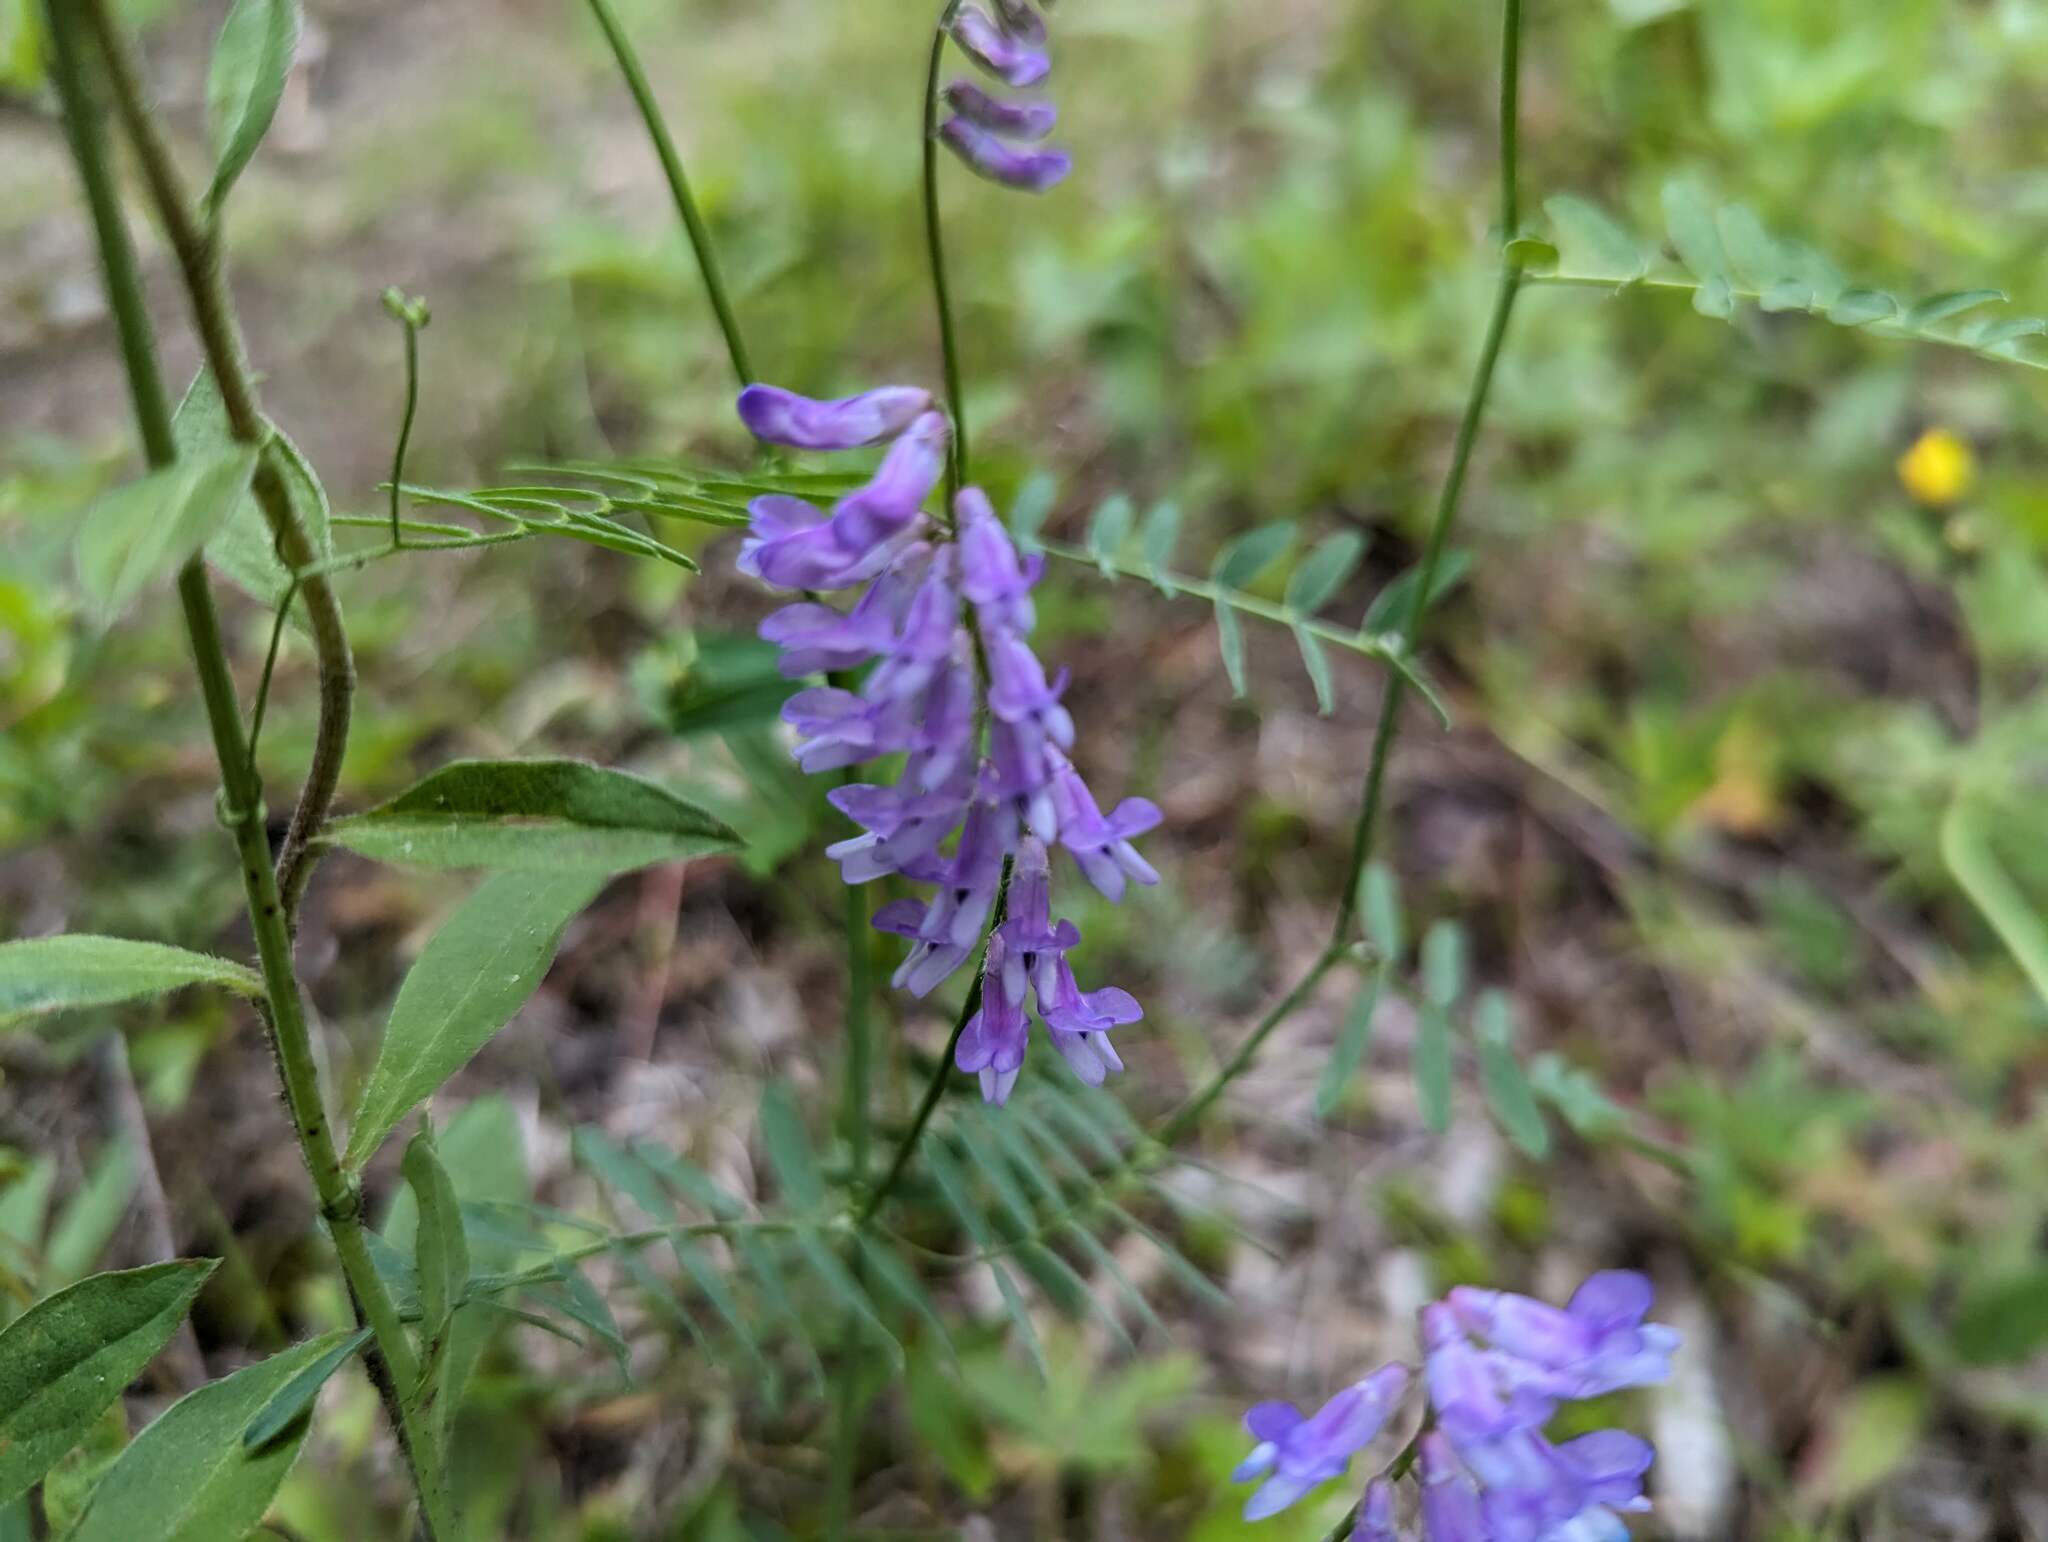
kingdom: Plantae
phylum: Tracheophyta
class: Magnoliopsida
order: Fabales
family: Fabaceae
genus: Vicia
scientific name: Vicia cracca
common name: Bird vetch
